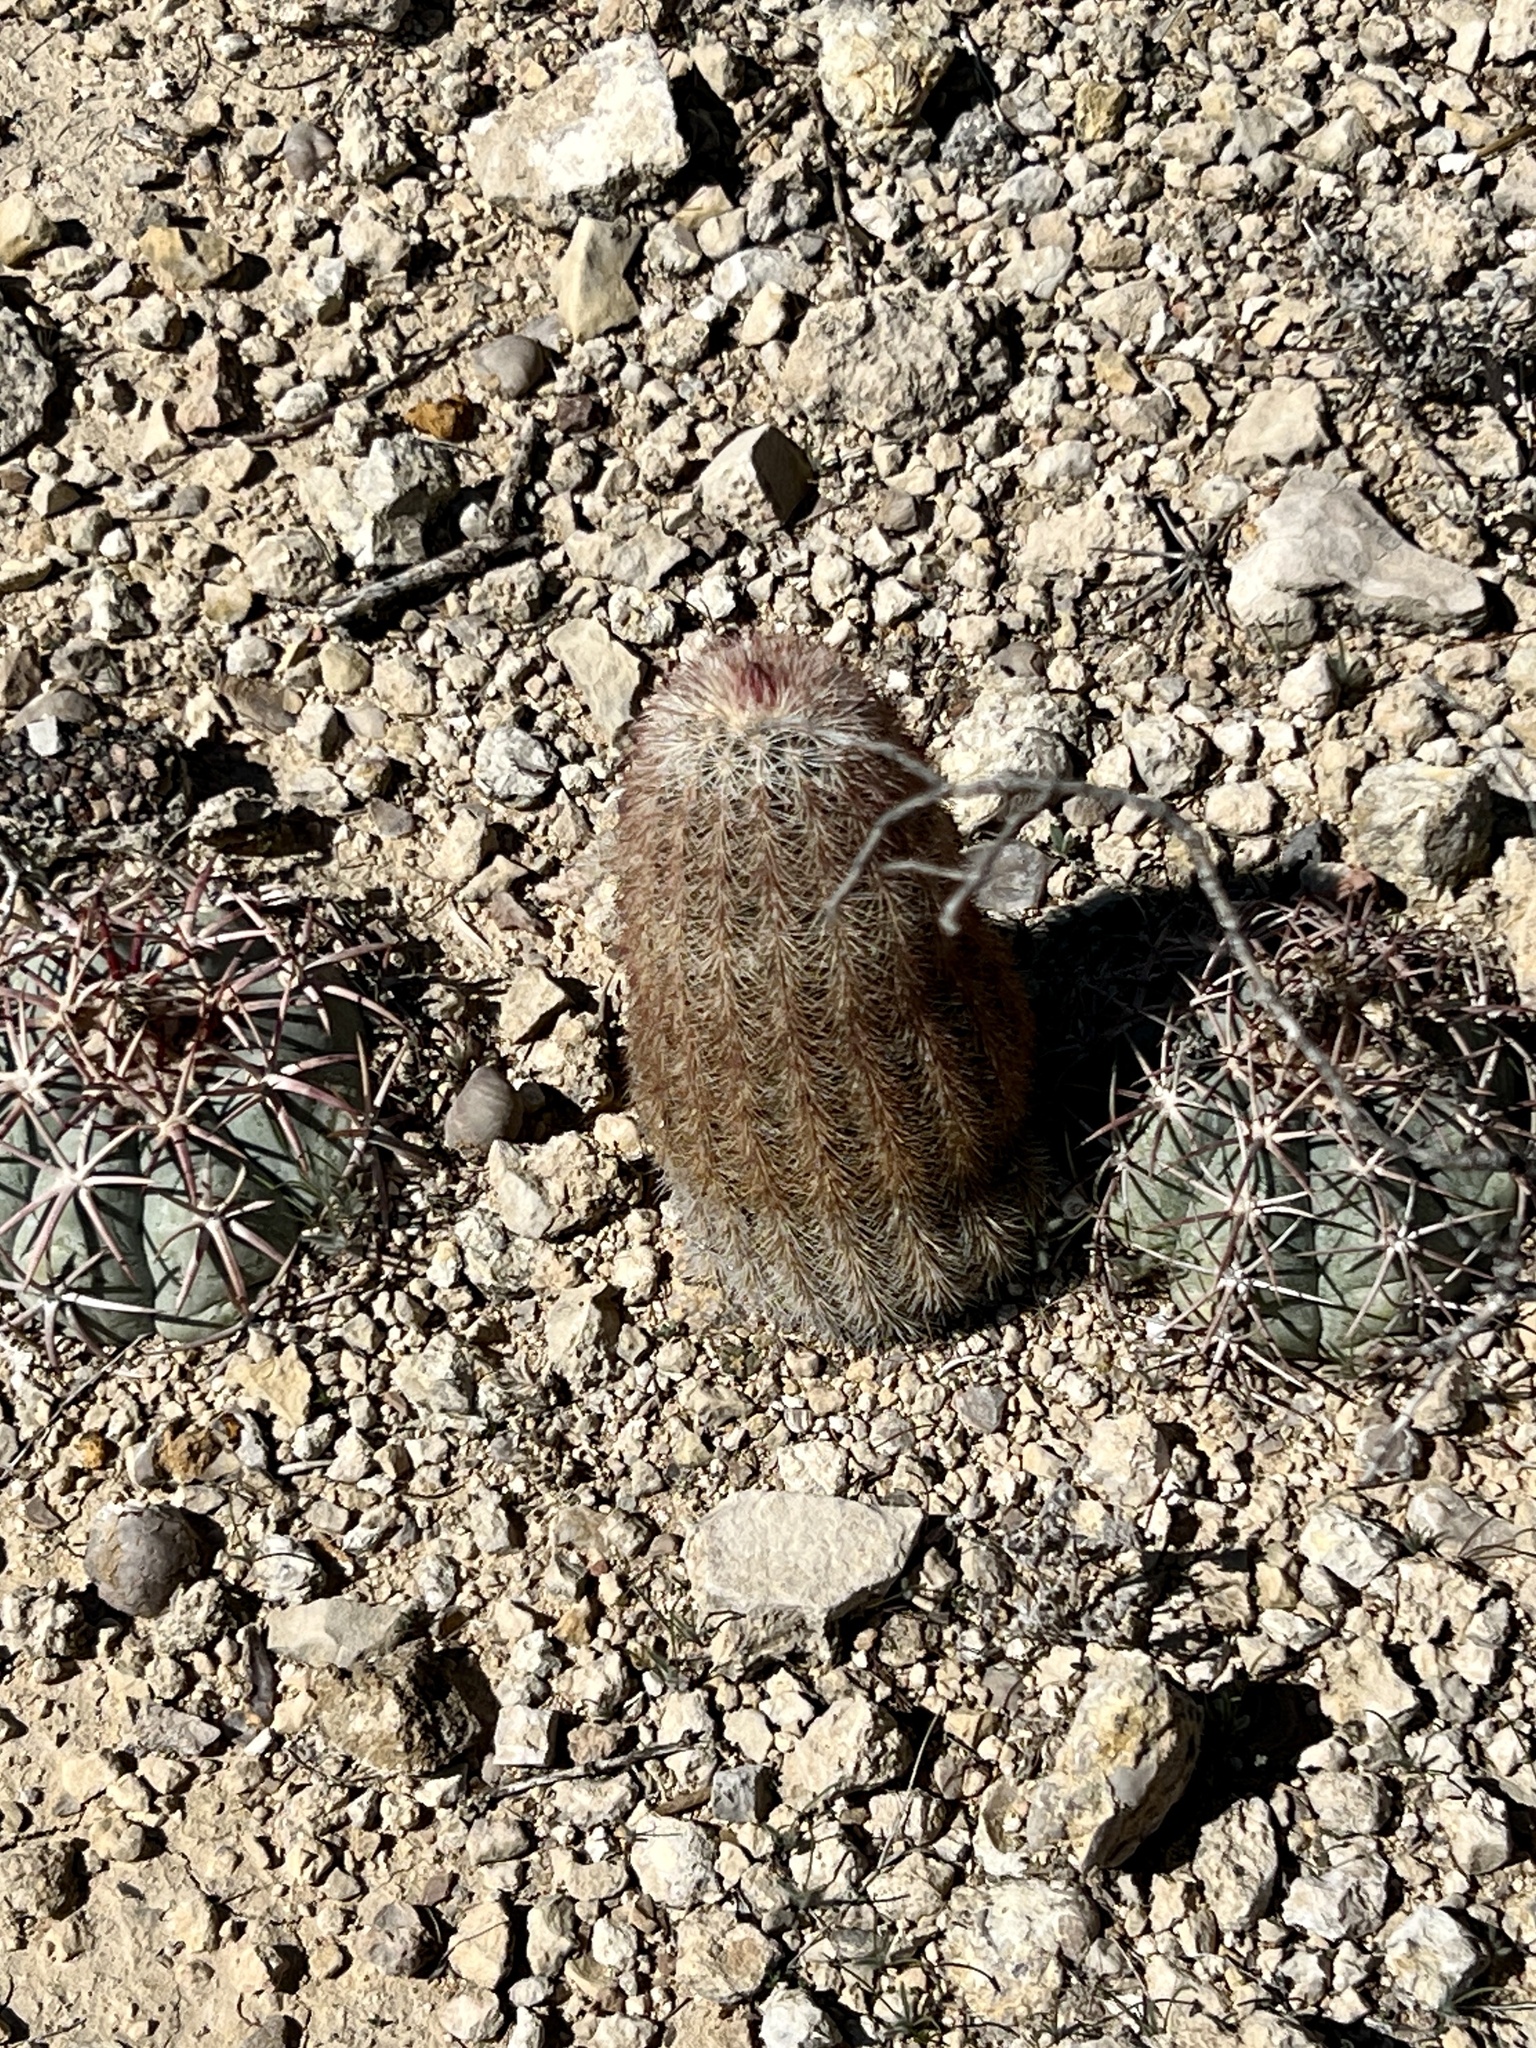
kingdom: Plantae
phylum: Tracheophyta
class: Magnoliopsida
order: Caryophyllales
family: Cactaceae
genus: Echinocereus
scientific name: Echinocereus dasyacanthus
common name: Spiny hedgehog cactus
